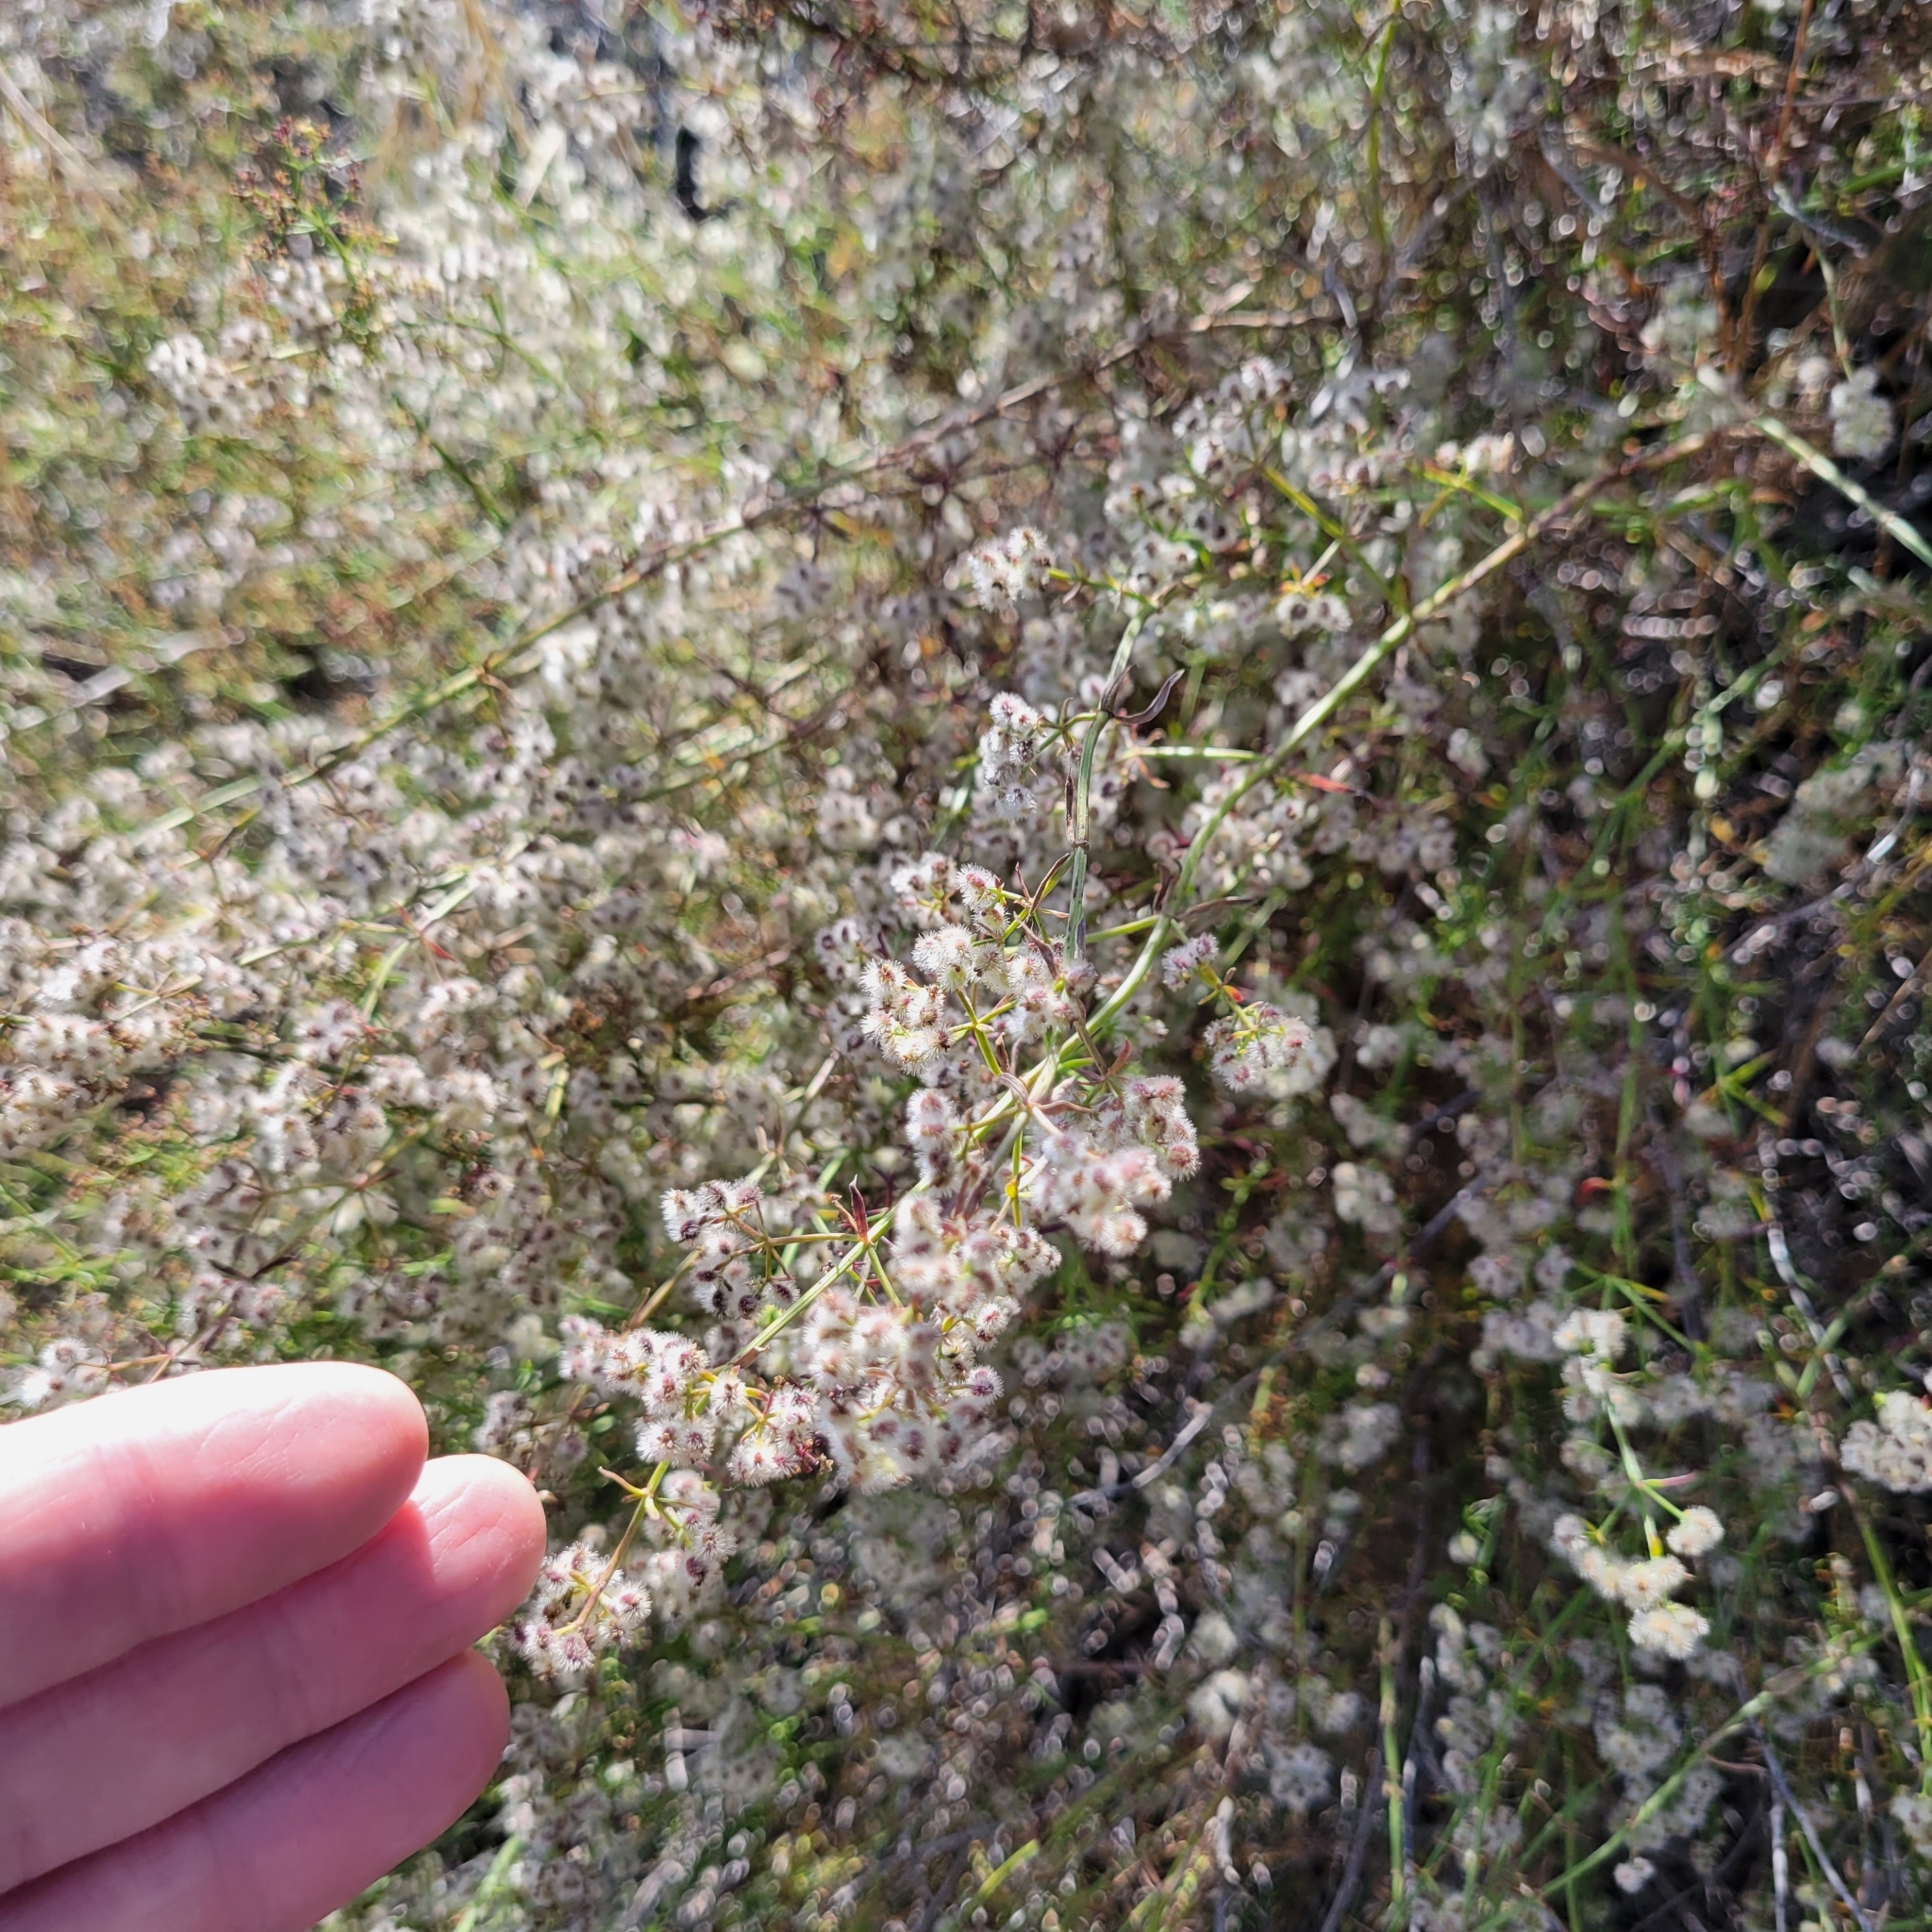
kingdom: Plantae
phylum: Tracheophyta
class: Magnoliopsida
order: Gentianales
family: Rubiaceae
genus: Galium
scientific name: Galium angustifolium
